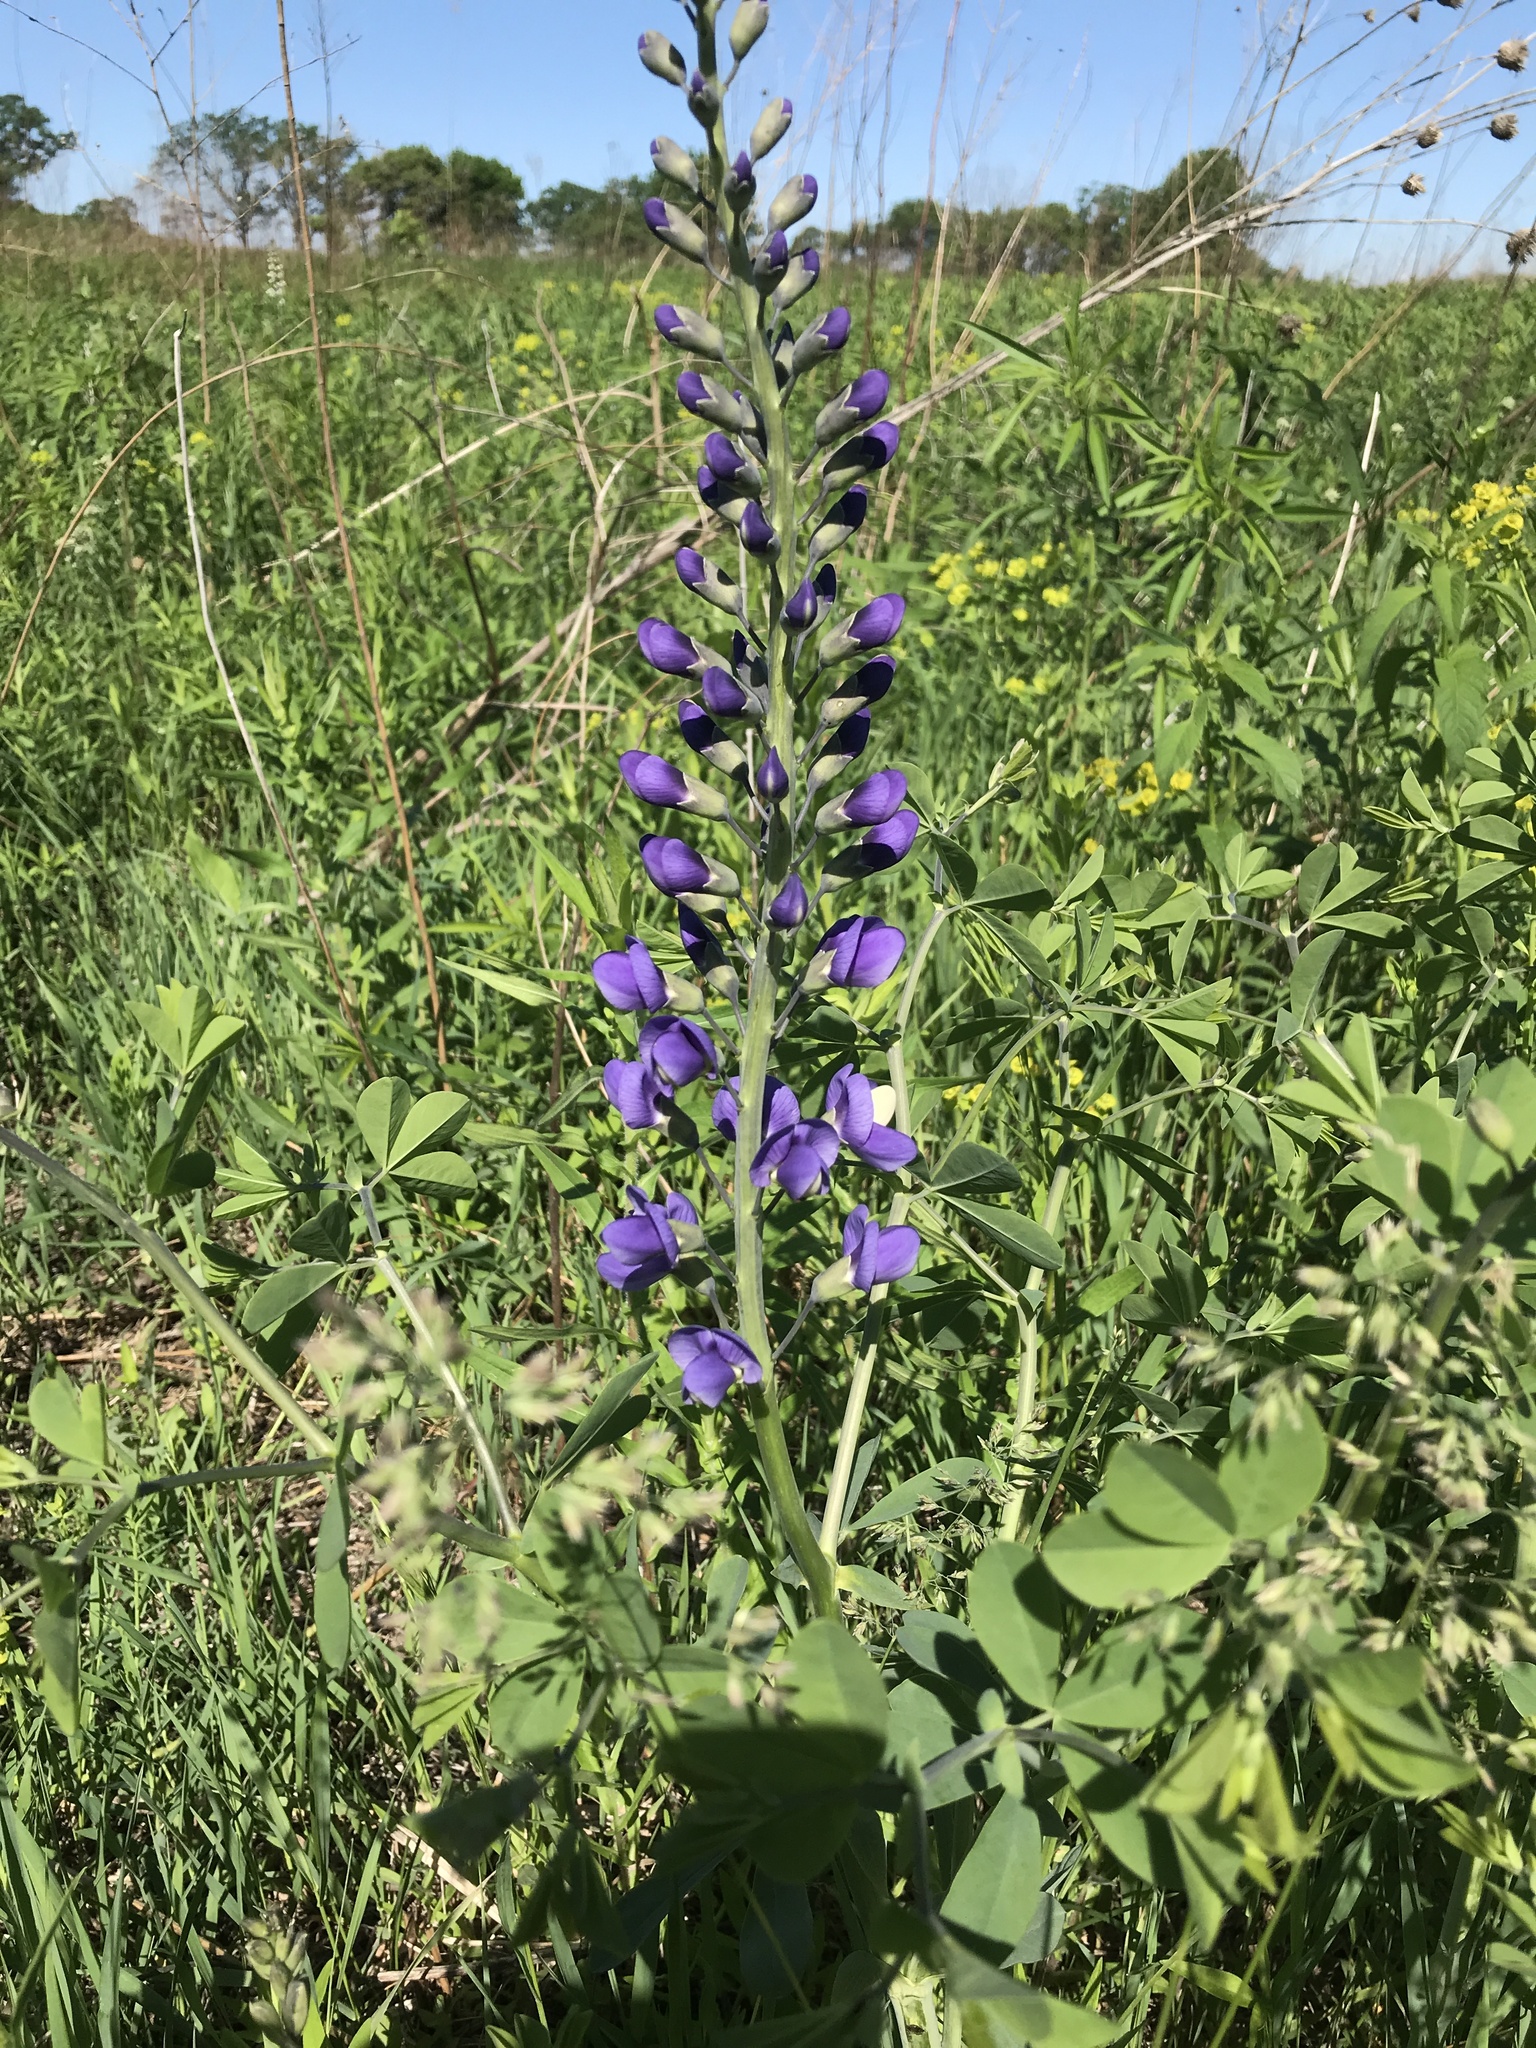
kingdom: Plantae
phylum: Tracheophyta
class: Magnoliopsida
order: Fabales
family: Fabaceae
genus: Baptisia
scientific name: Baptisia australis
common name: Blue false indigo
